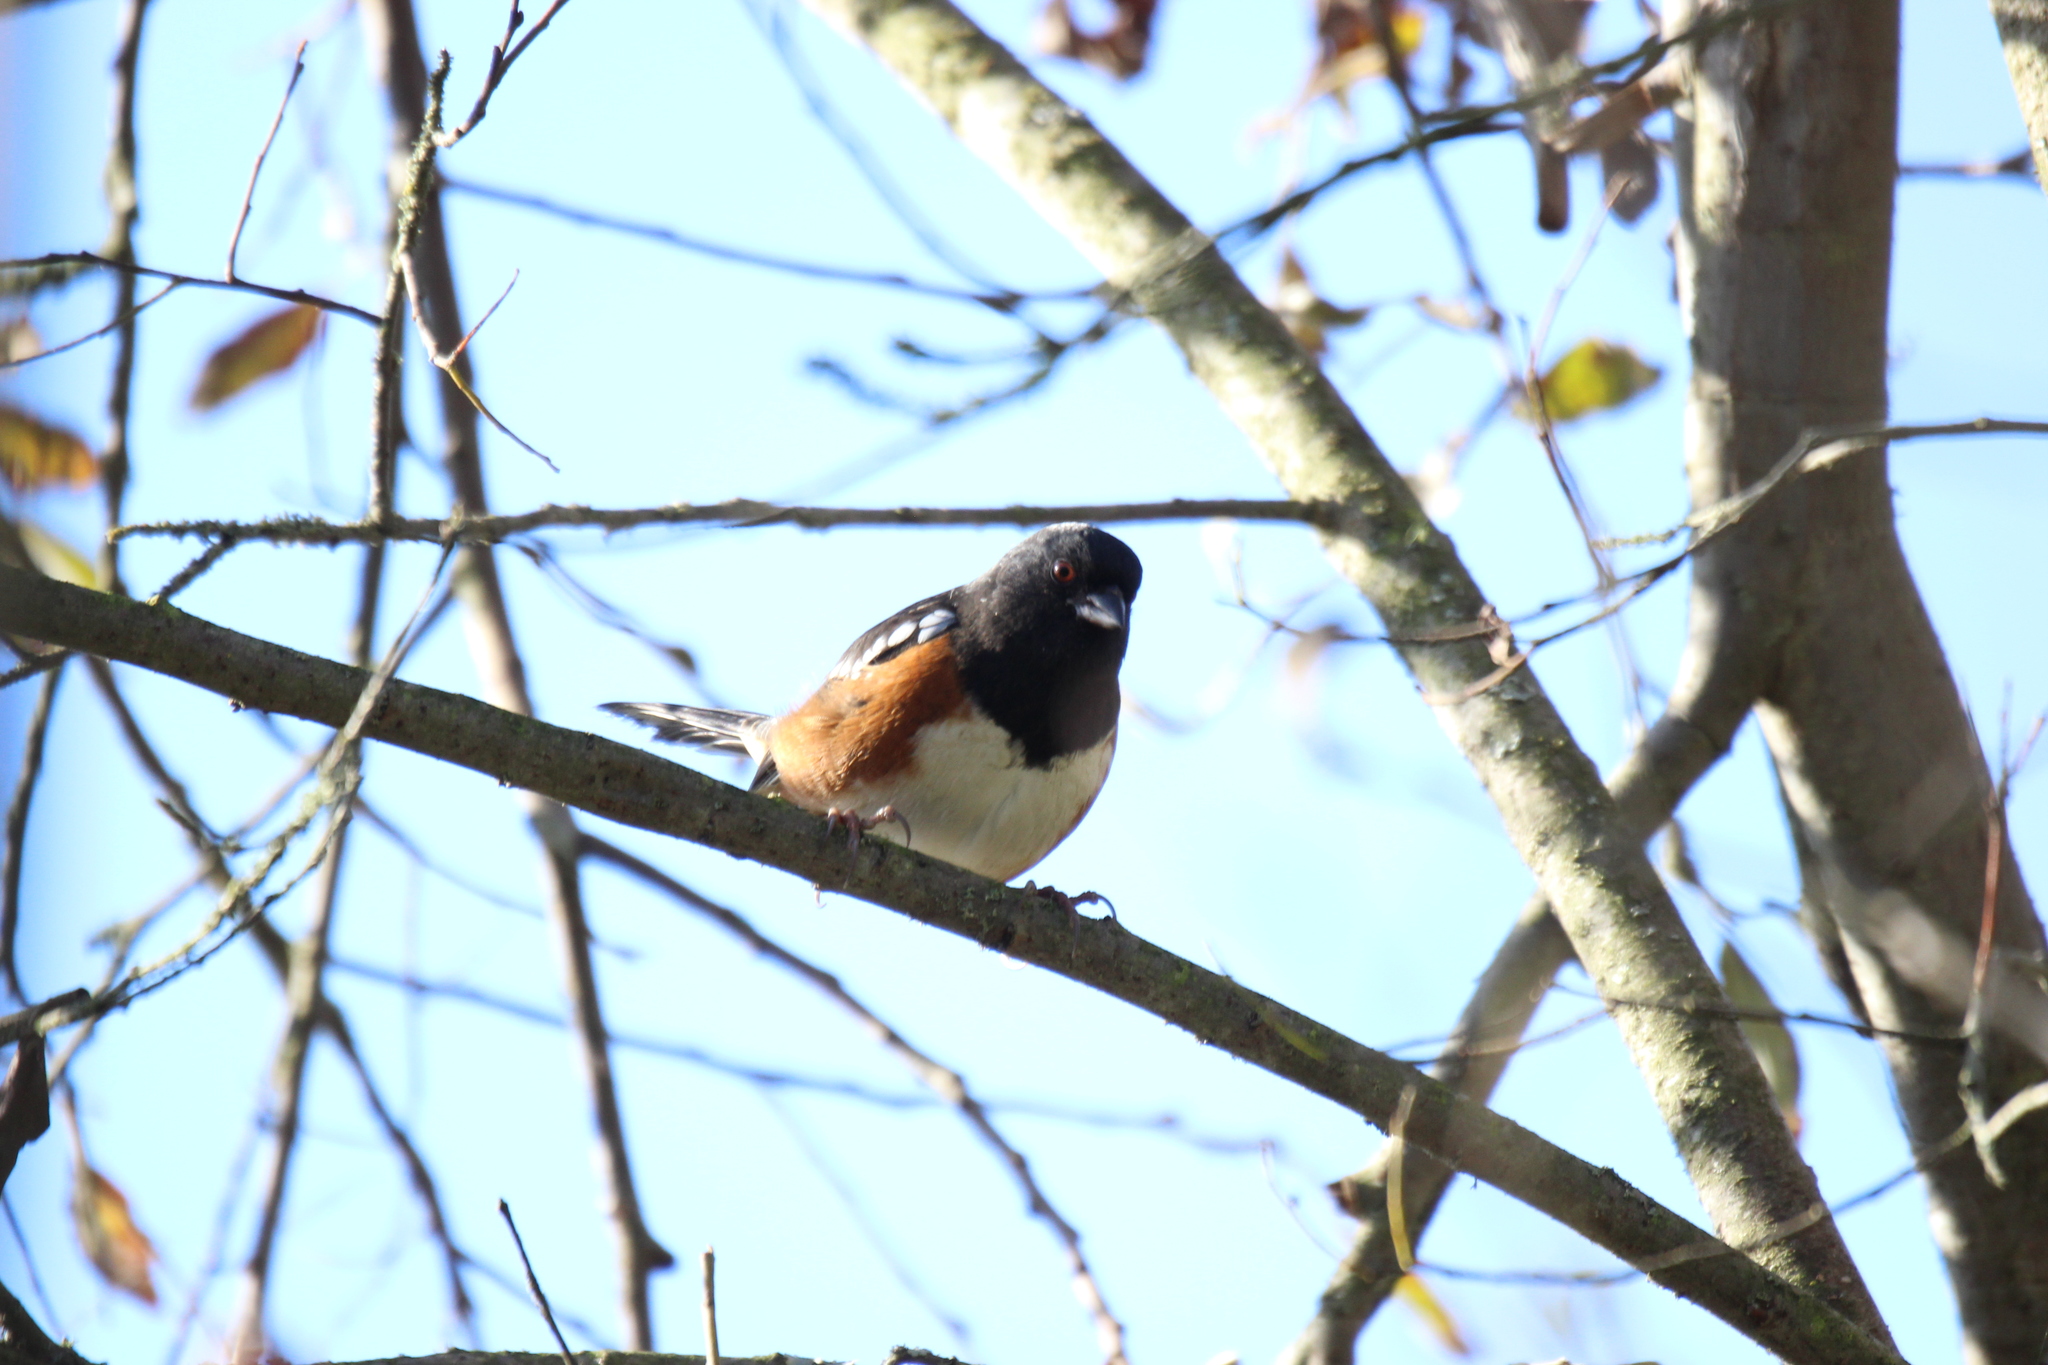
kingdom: Animalia
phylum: Chordata
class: Aves
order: Passeriformes
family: Passerellidae
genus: Pipilo
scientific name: Pipilo maculatus
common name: Spotted towhee
